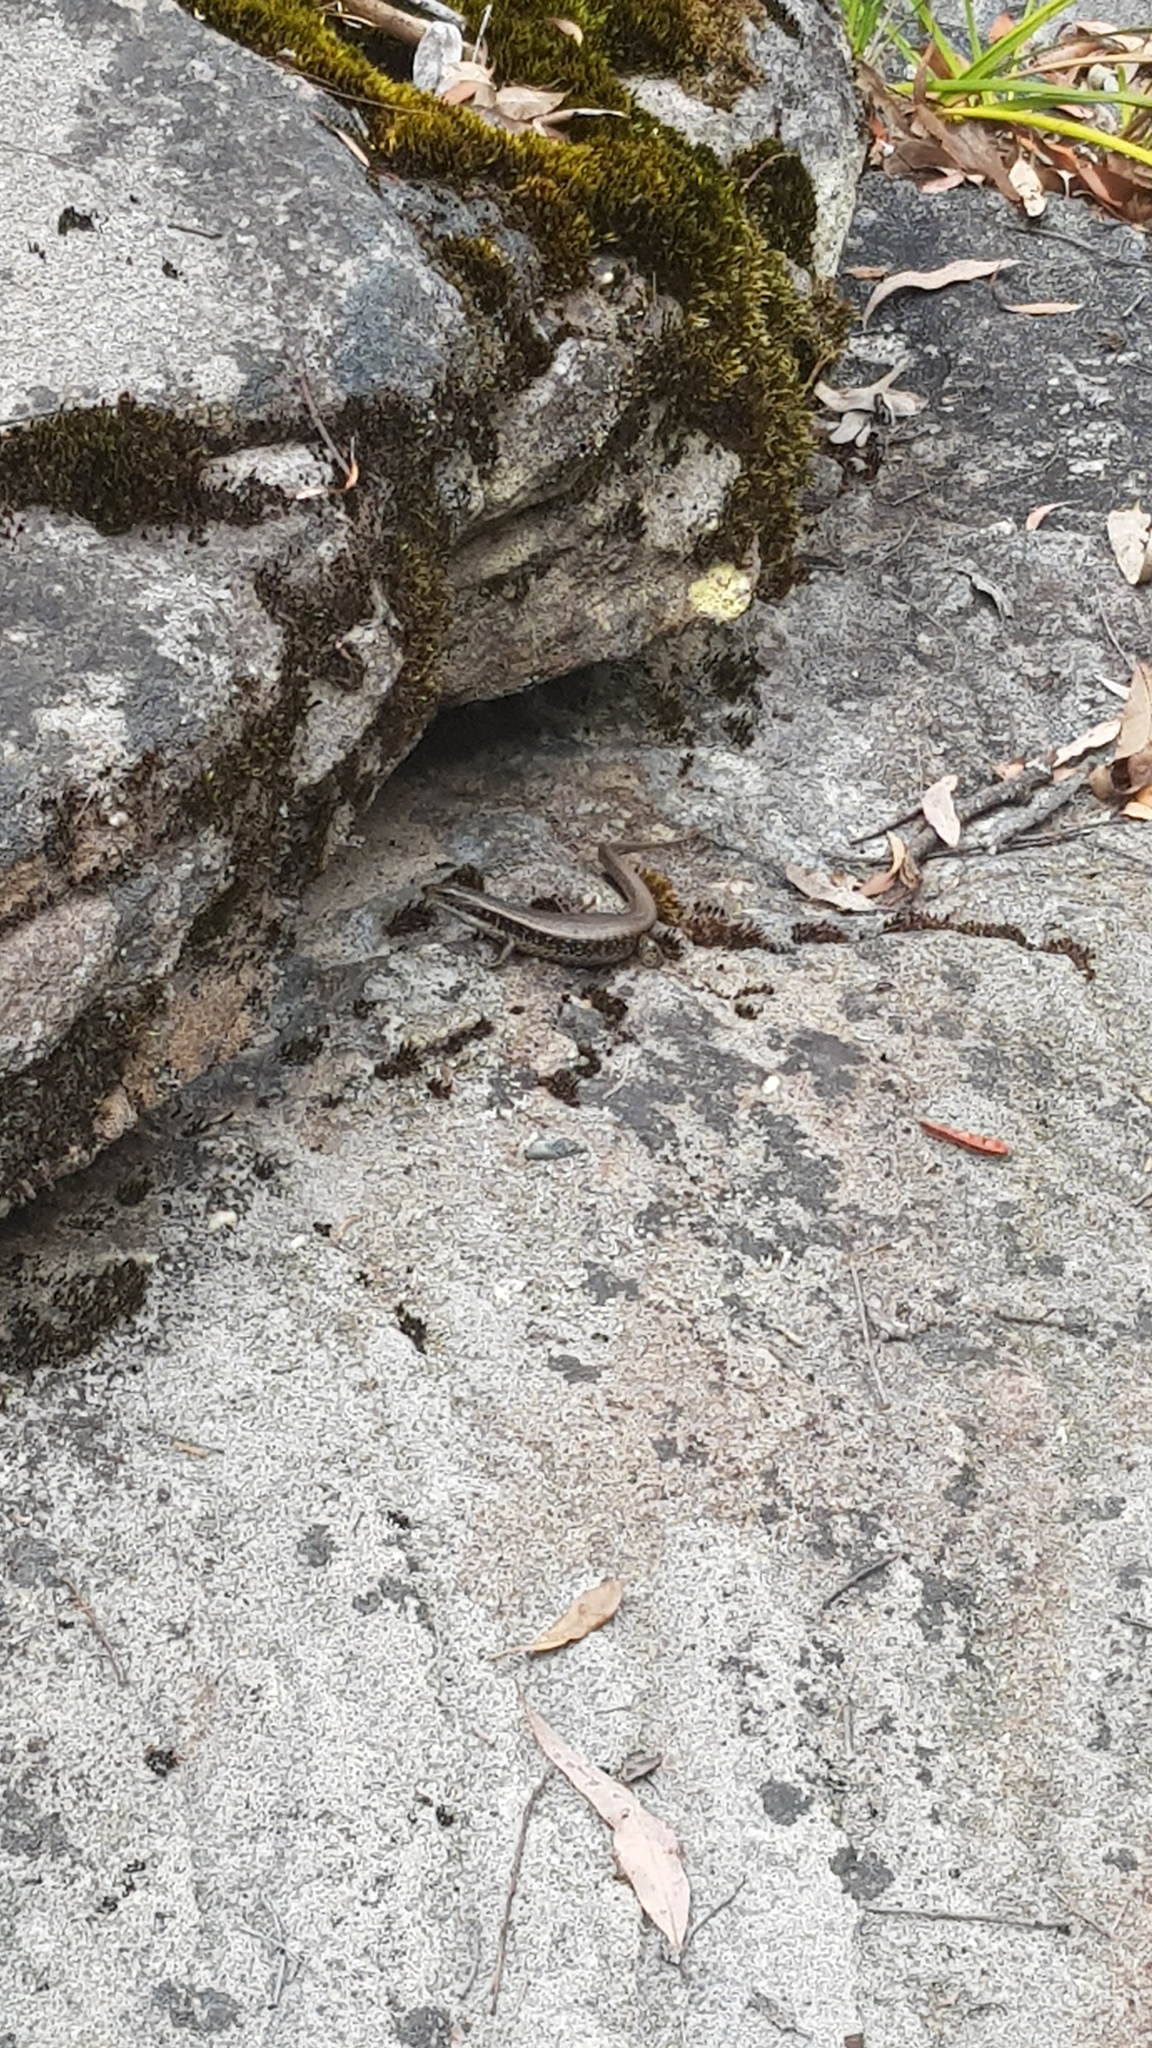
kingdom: Animalia
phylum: Chordata
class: Squamata
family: Scincidae
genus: Eulamprus
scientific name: Eulamprus quoyii
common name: Eastern water skink
